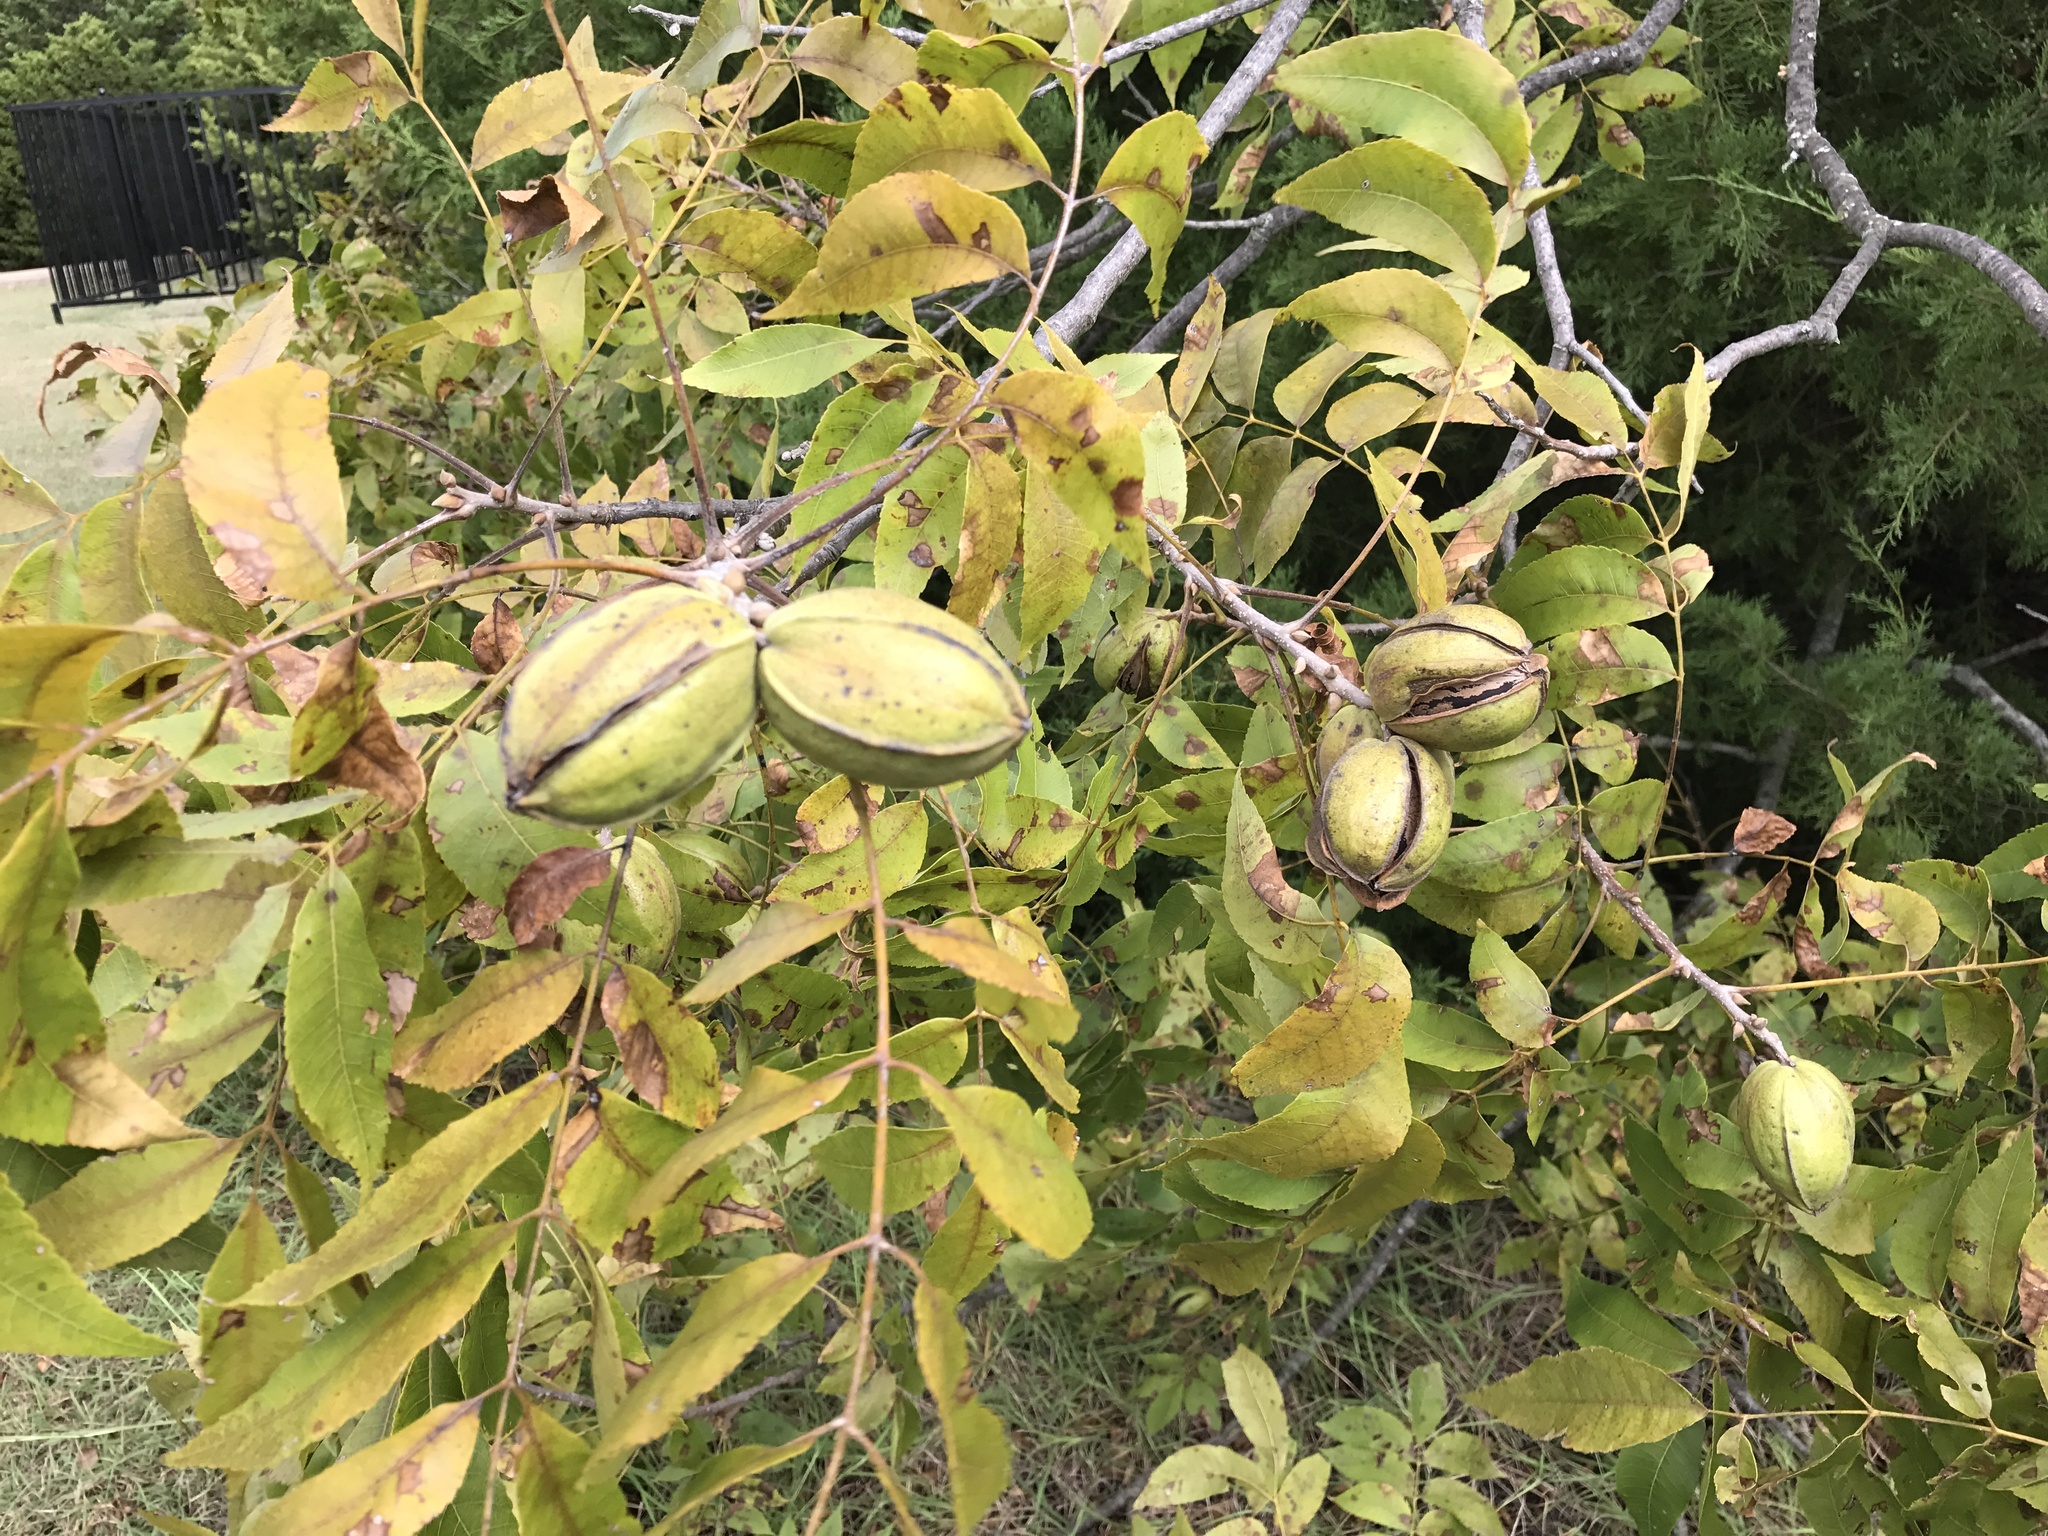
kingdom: Plantae
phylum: Tracheophyta
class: Magnoliopsida
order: Fagales
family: Juglandaceae
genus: Carya
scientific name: Carya illinoinensis
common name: Pecan
